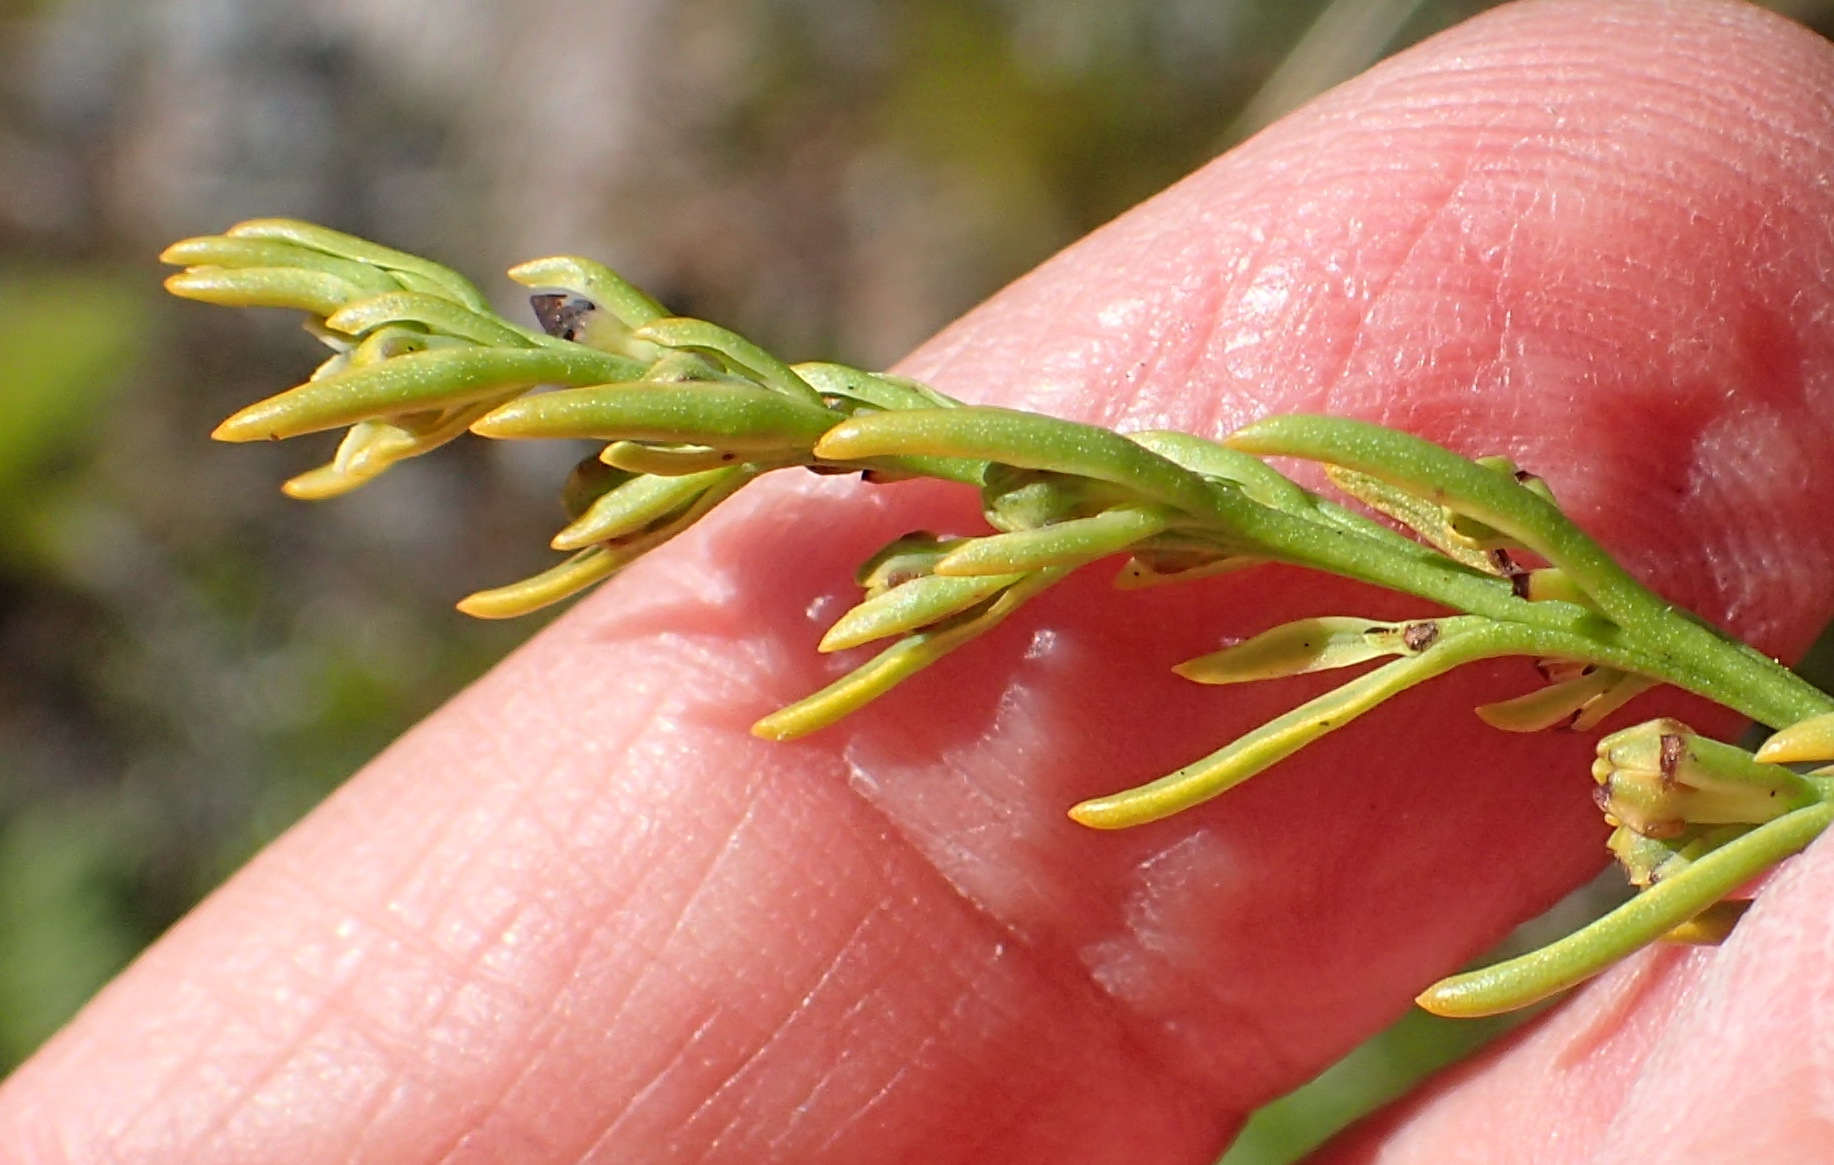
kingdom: Plantae
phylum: Tracheophyta
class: Magnoliopsida
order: Santalales
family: Thesiaceae
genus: Thesium
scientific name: Thesium fruticosum
